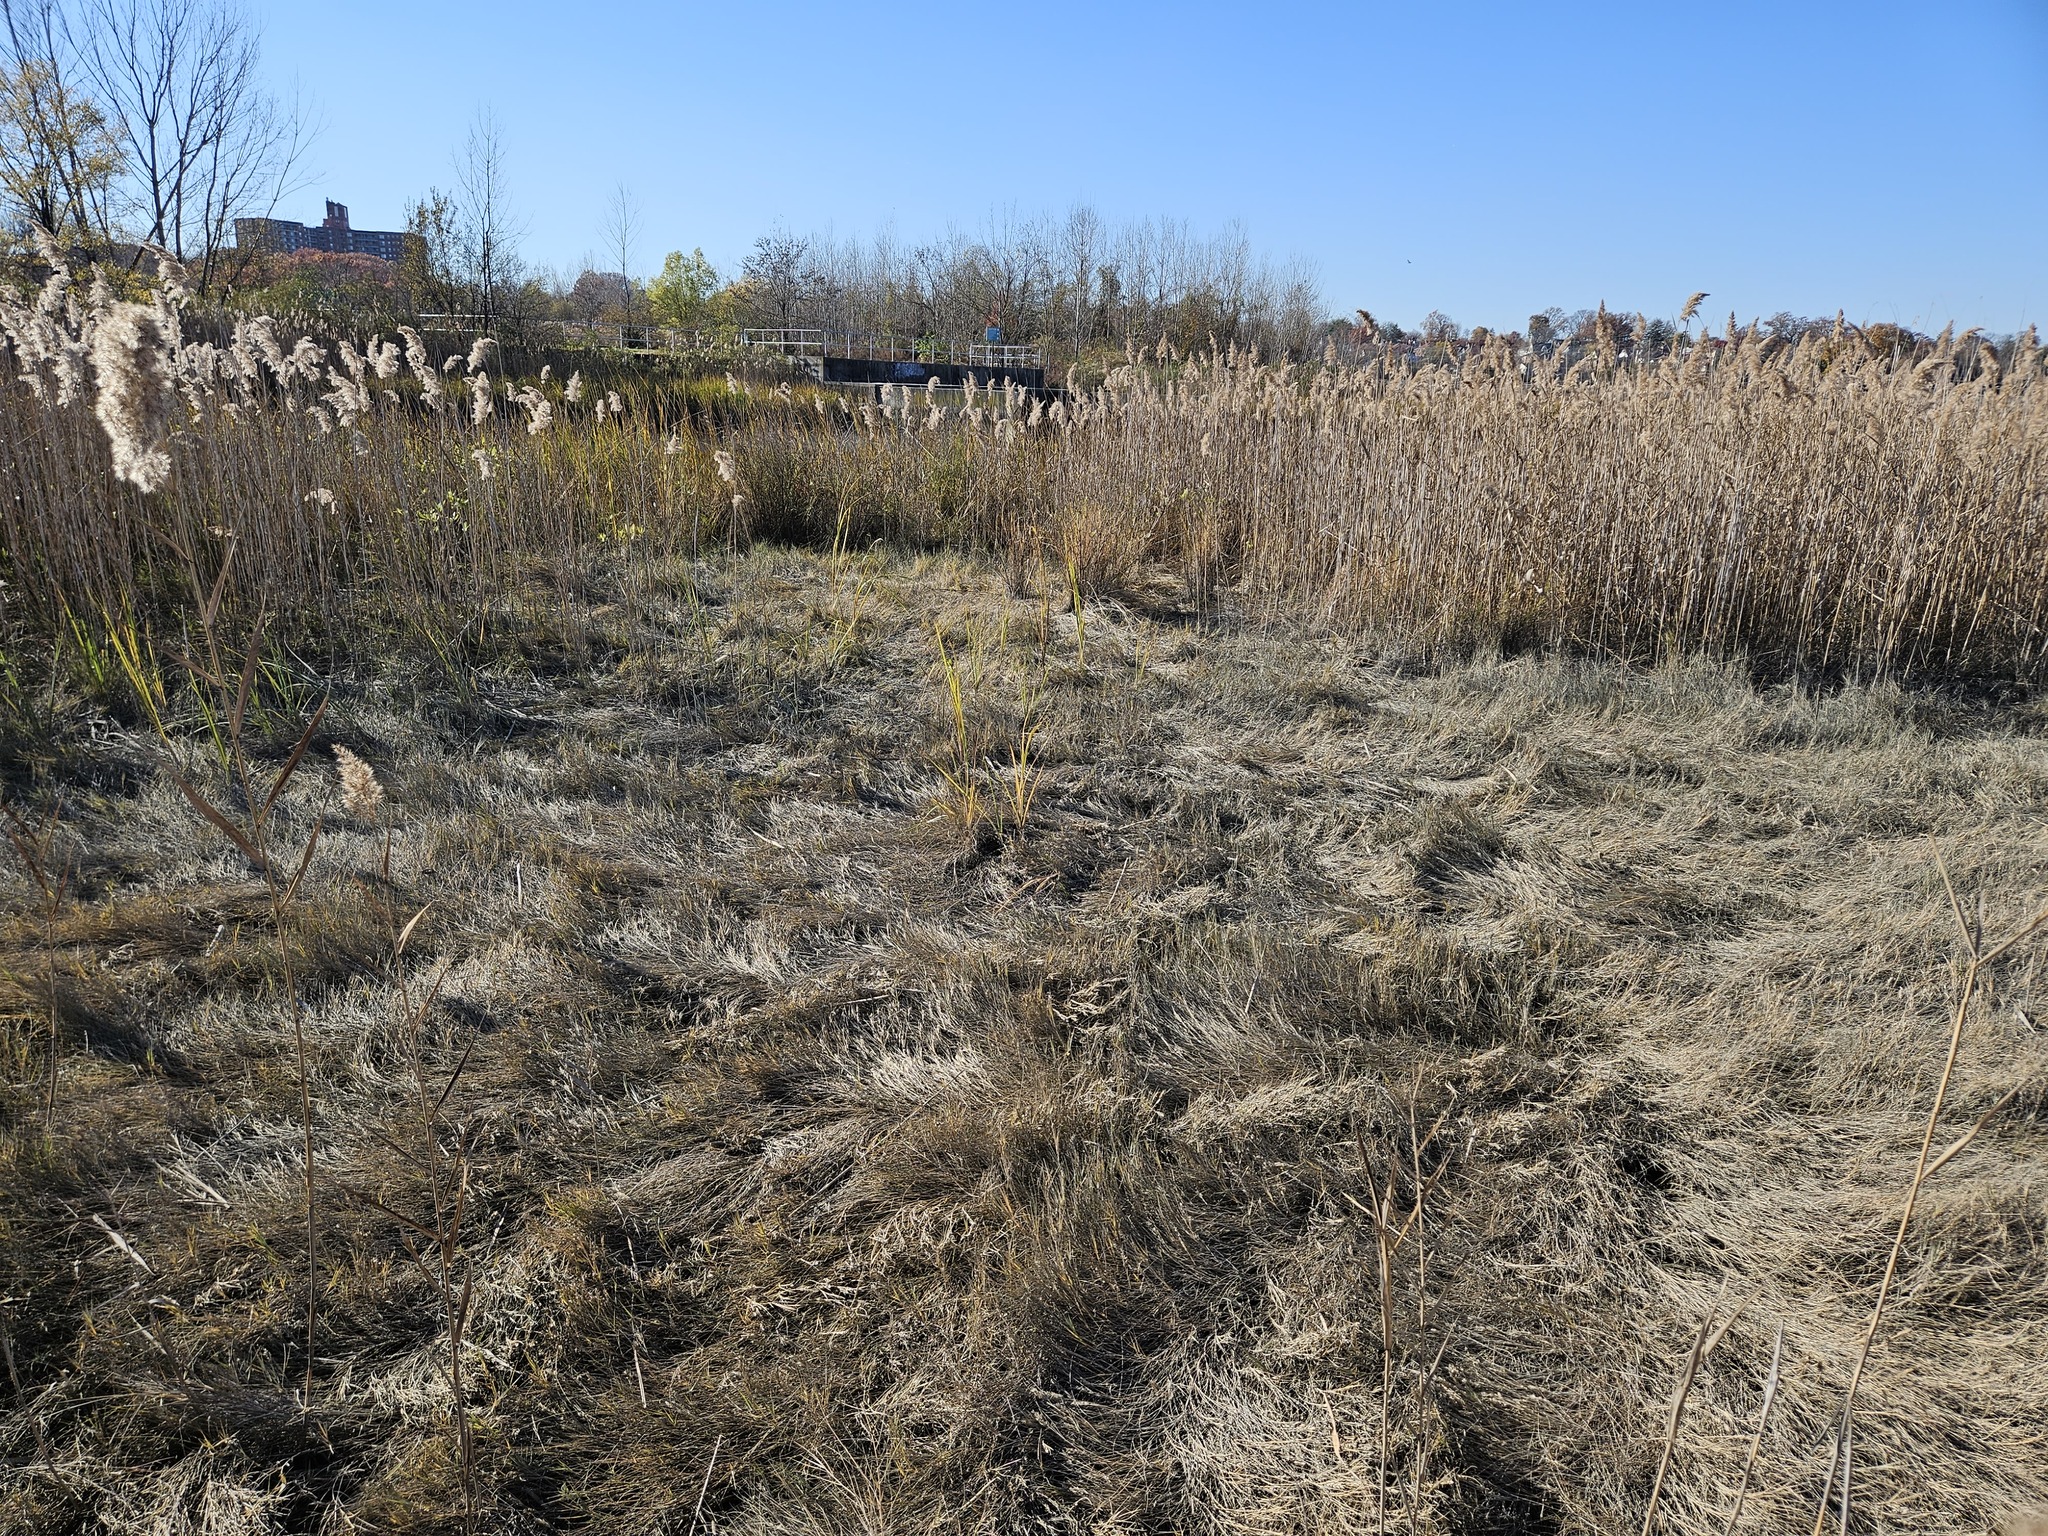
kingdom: Plantae
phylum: Tracheophyta
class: Liliopsida
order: Poales
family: Poaceae
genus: Distichlis
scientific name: Distichlis spicata
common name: Saltgrass
